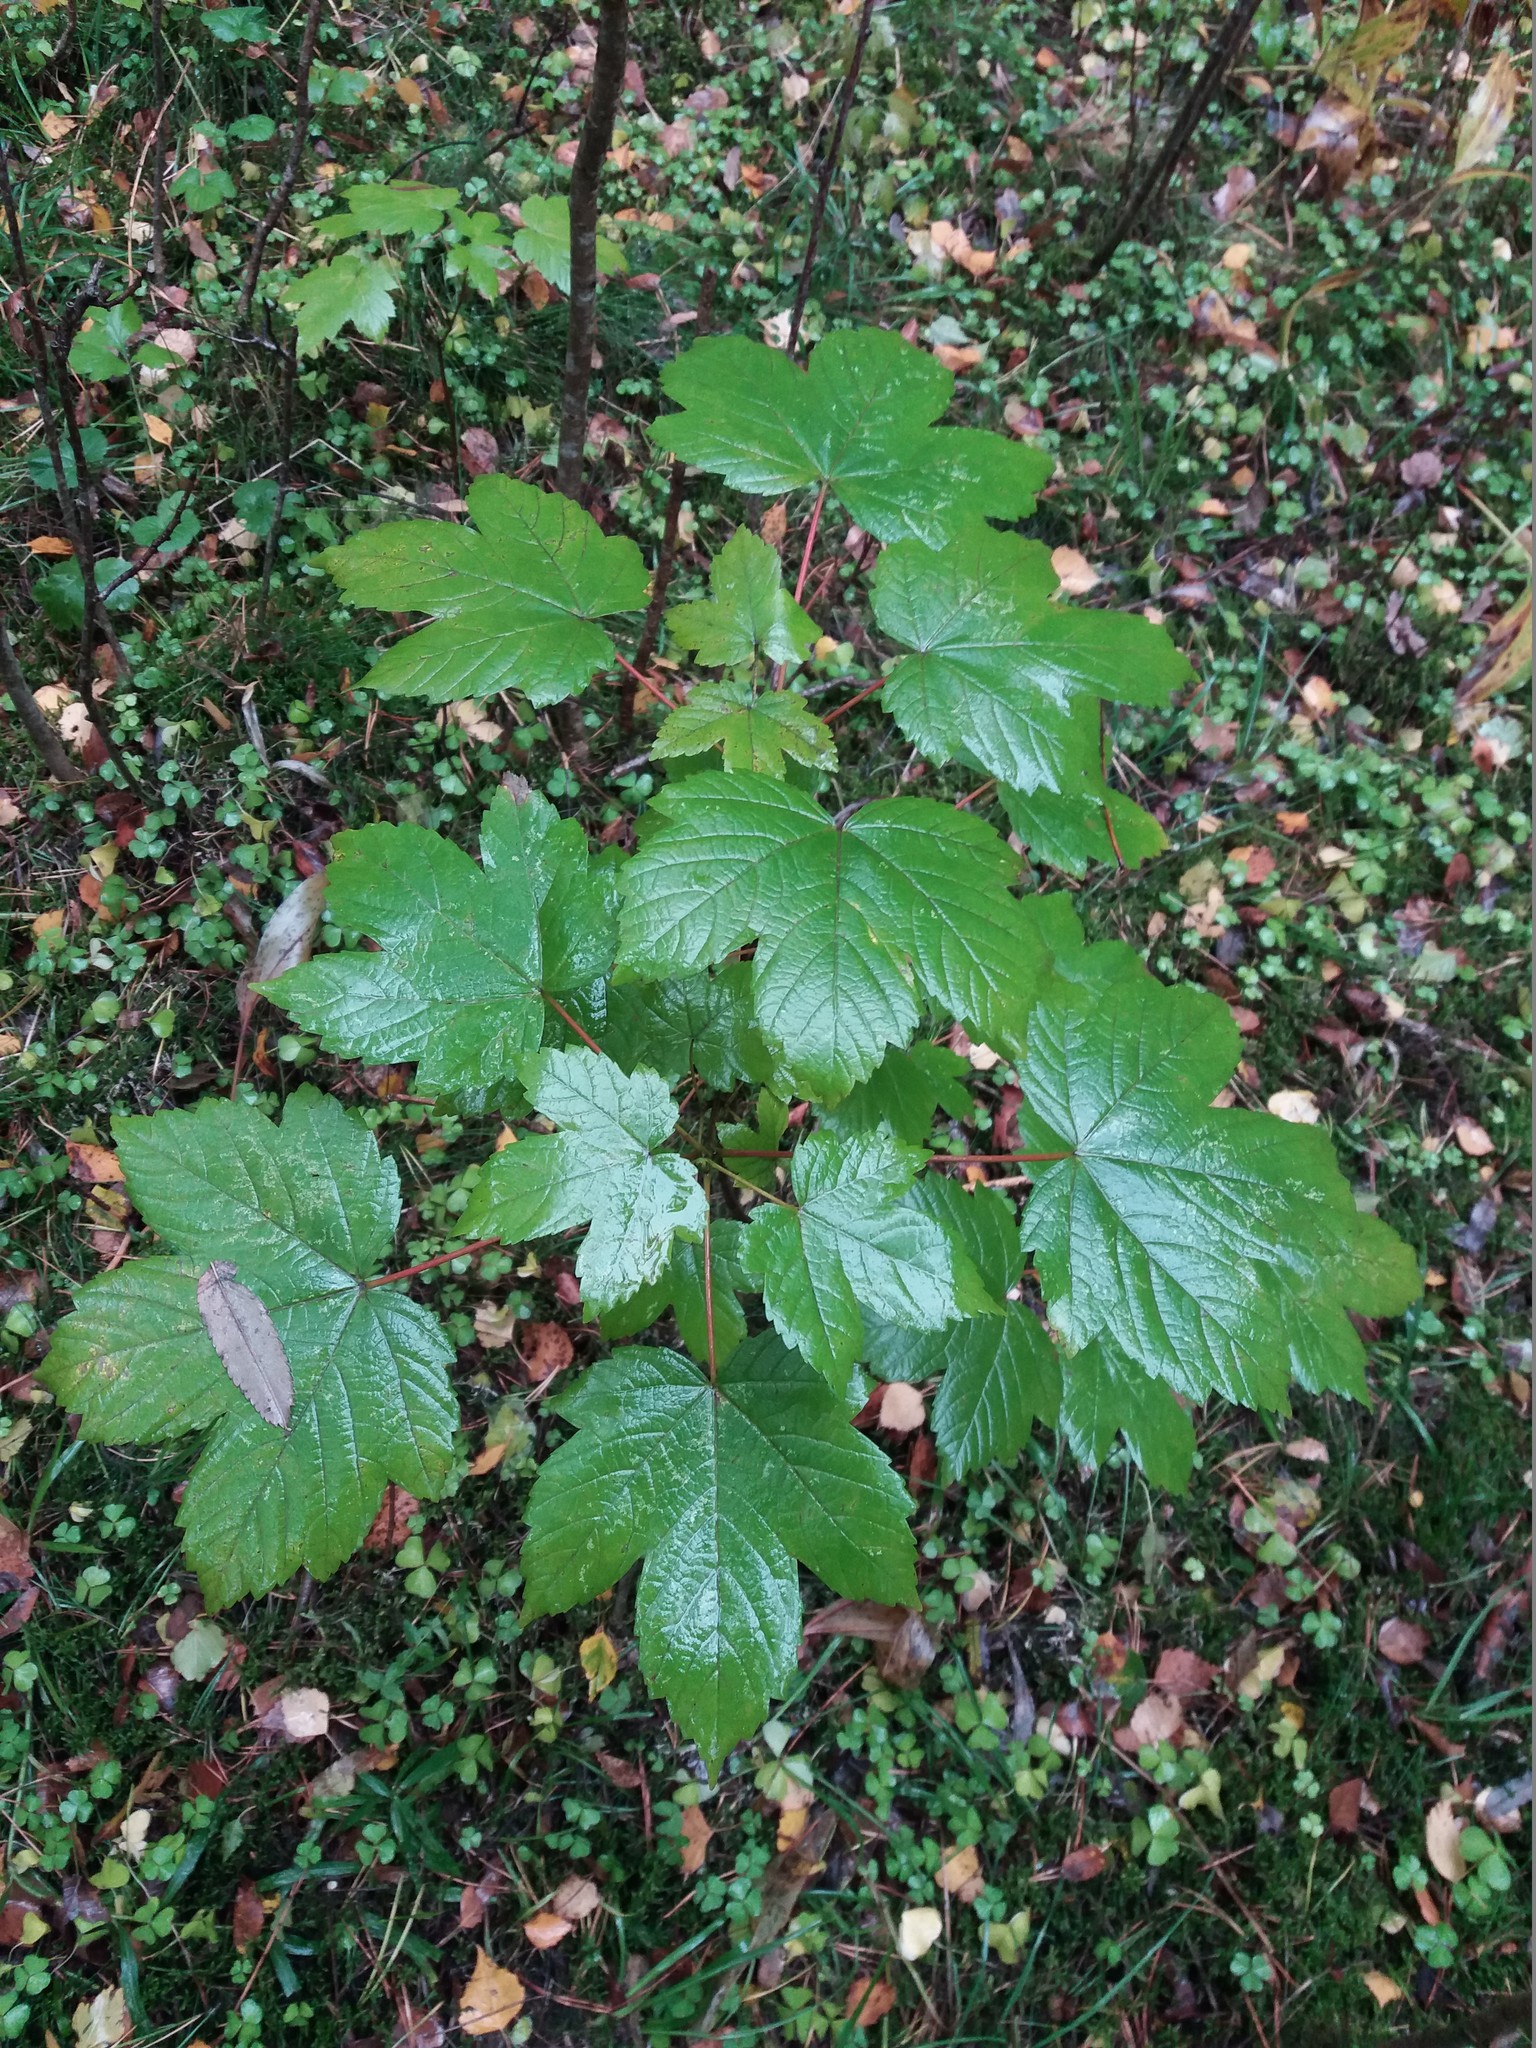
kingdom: Plantae
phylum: Tracheophyta
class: Magnoliopsida
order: Sapindales
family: Sapindaceae
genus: Acer
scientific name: Acer pseudoplatanus
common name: Sycamore
